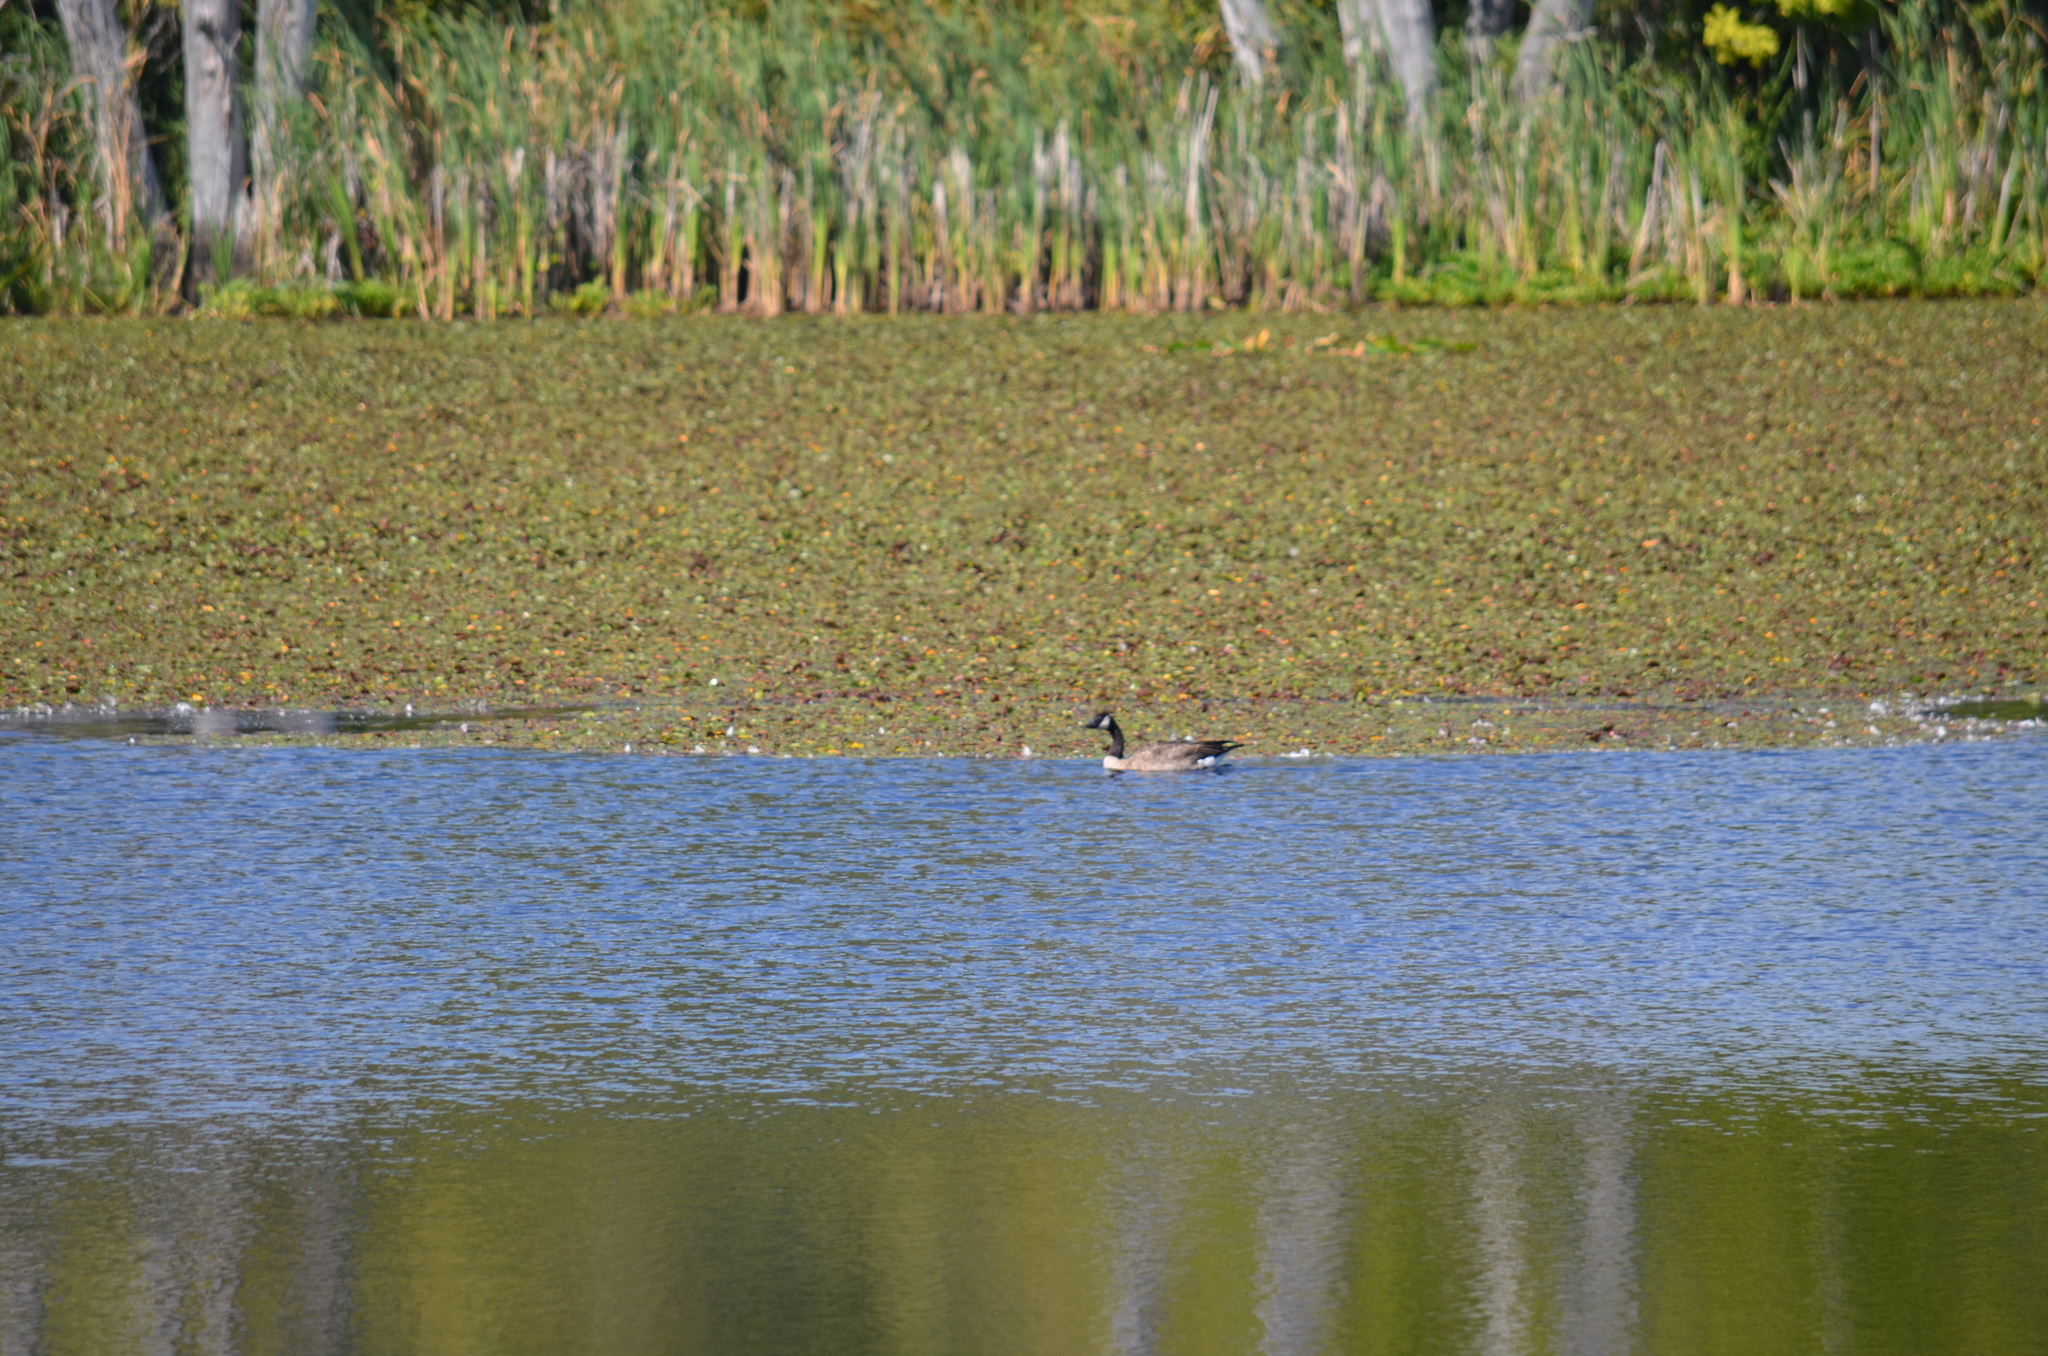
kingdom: Animalia
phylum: Chordata
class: Aves
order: Anseriformes
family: Anatidae
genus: Branta
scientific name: Branta canadensis
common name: Canada goose
